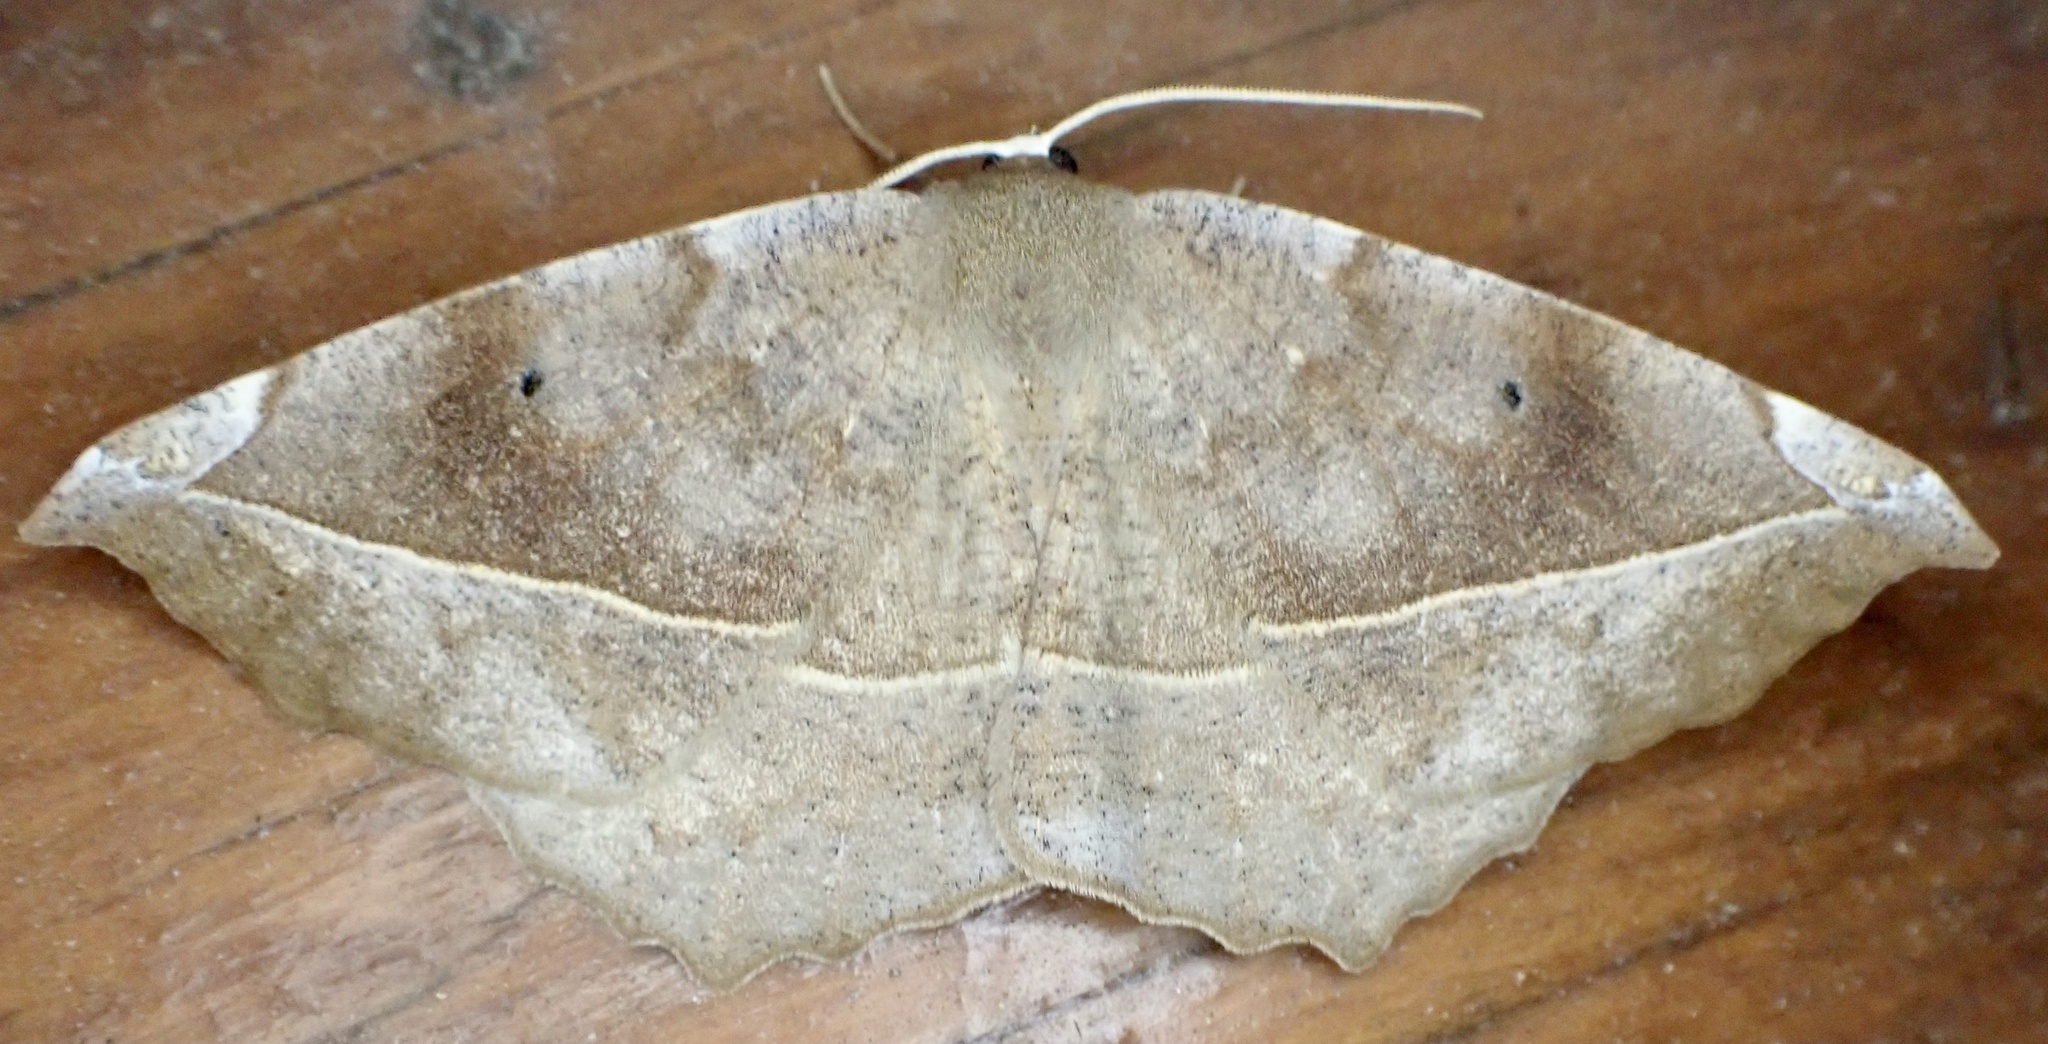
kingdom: Animalia
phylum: Arthropoda
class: Insecta
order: Lepidoptera
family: Geometridae
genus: Eutrapela
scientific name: Eutrapela clemataria
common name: Curved-toothed geometer
